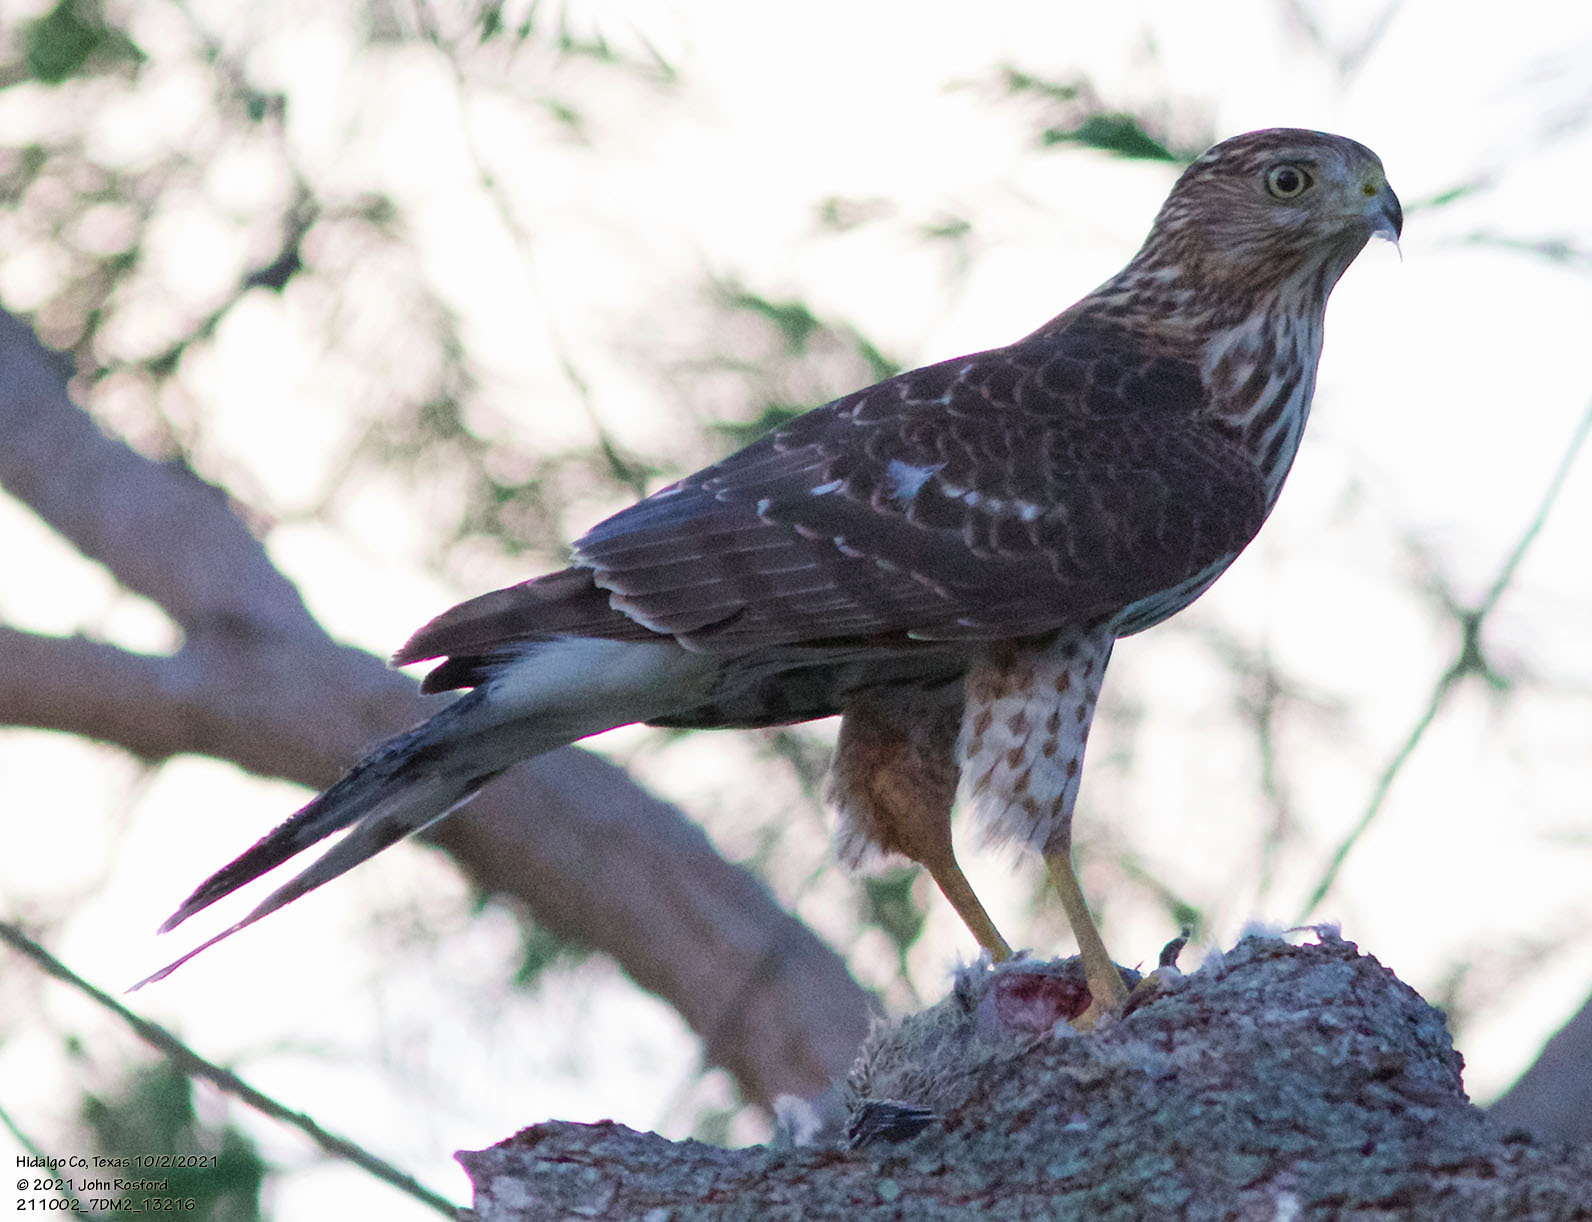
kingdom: Animalia
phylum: Chordata
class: Aves
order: Accipitriformes
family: Accipitridae
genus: Accipiter
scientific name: Accipiter cooperii
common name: Cooper's hawk
